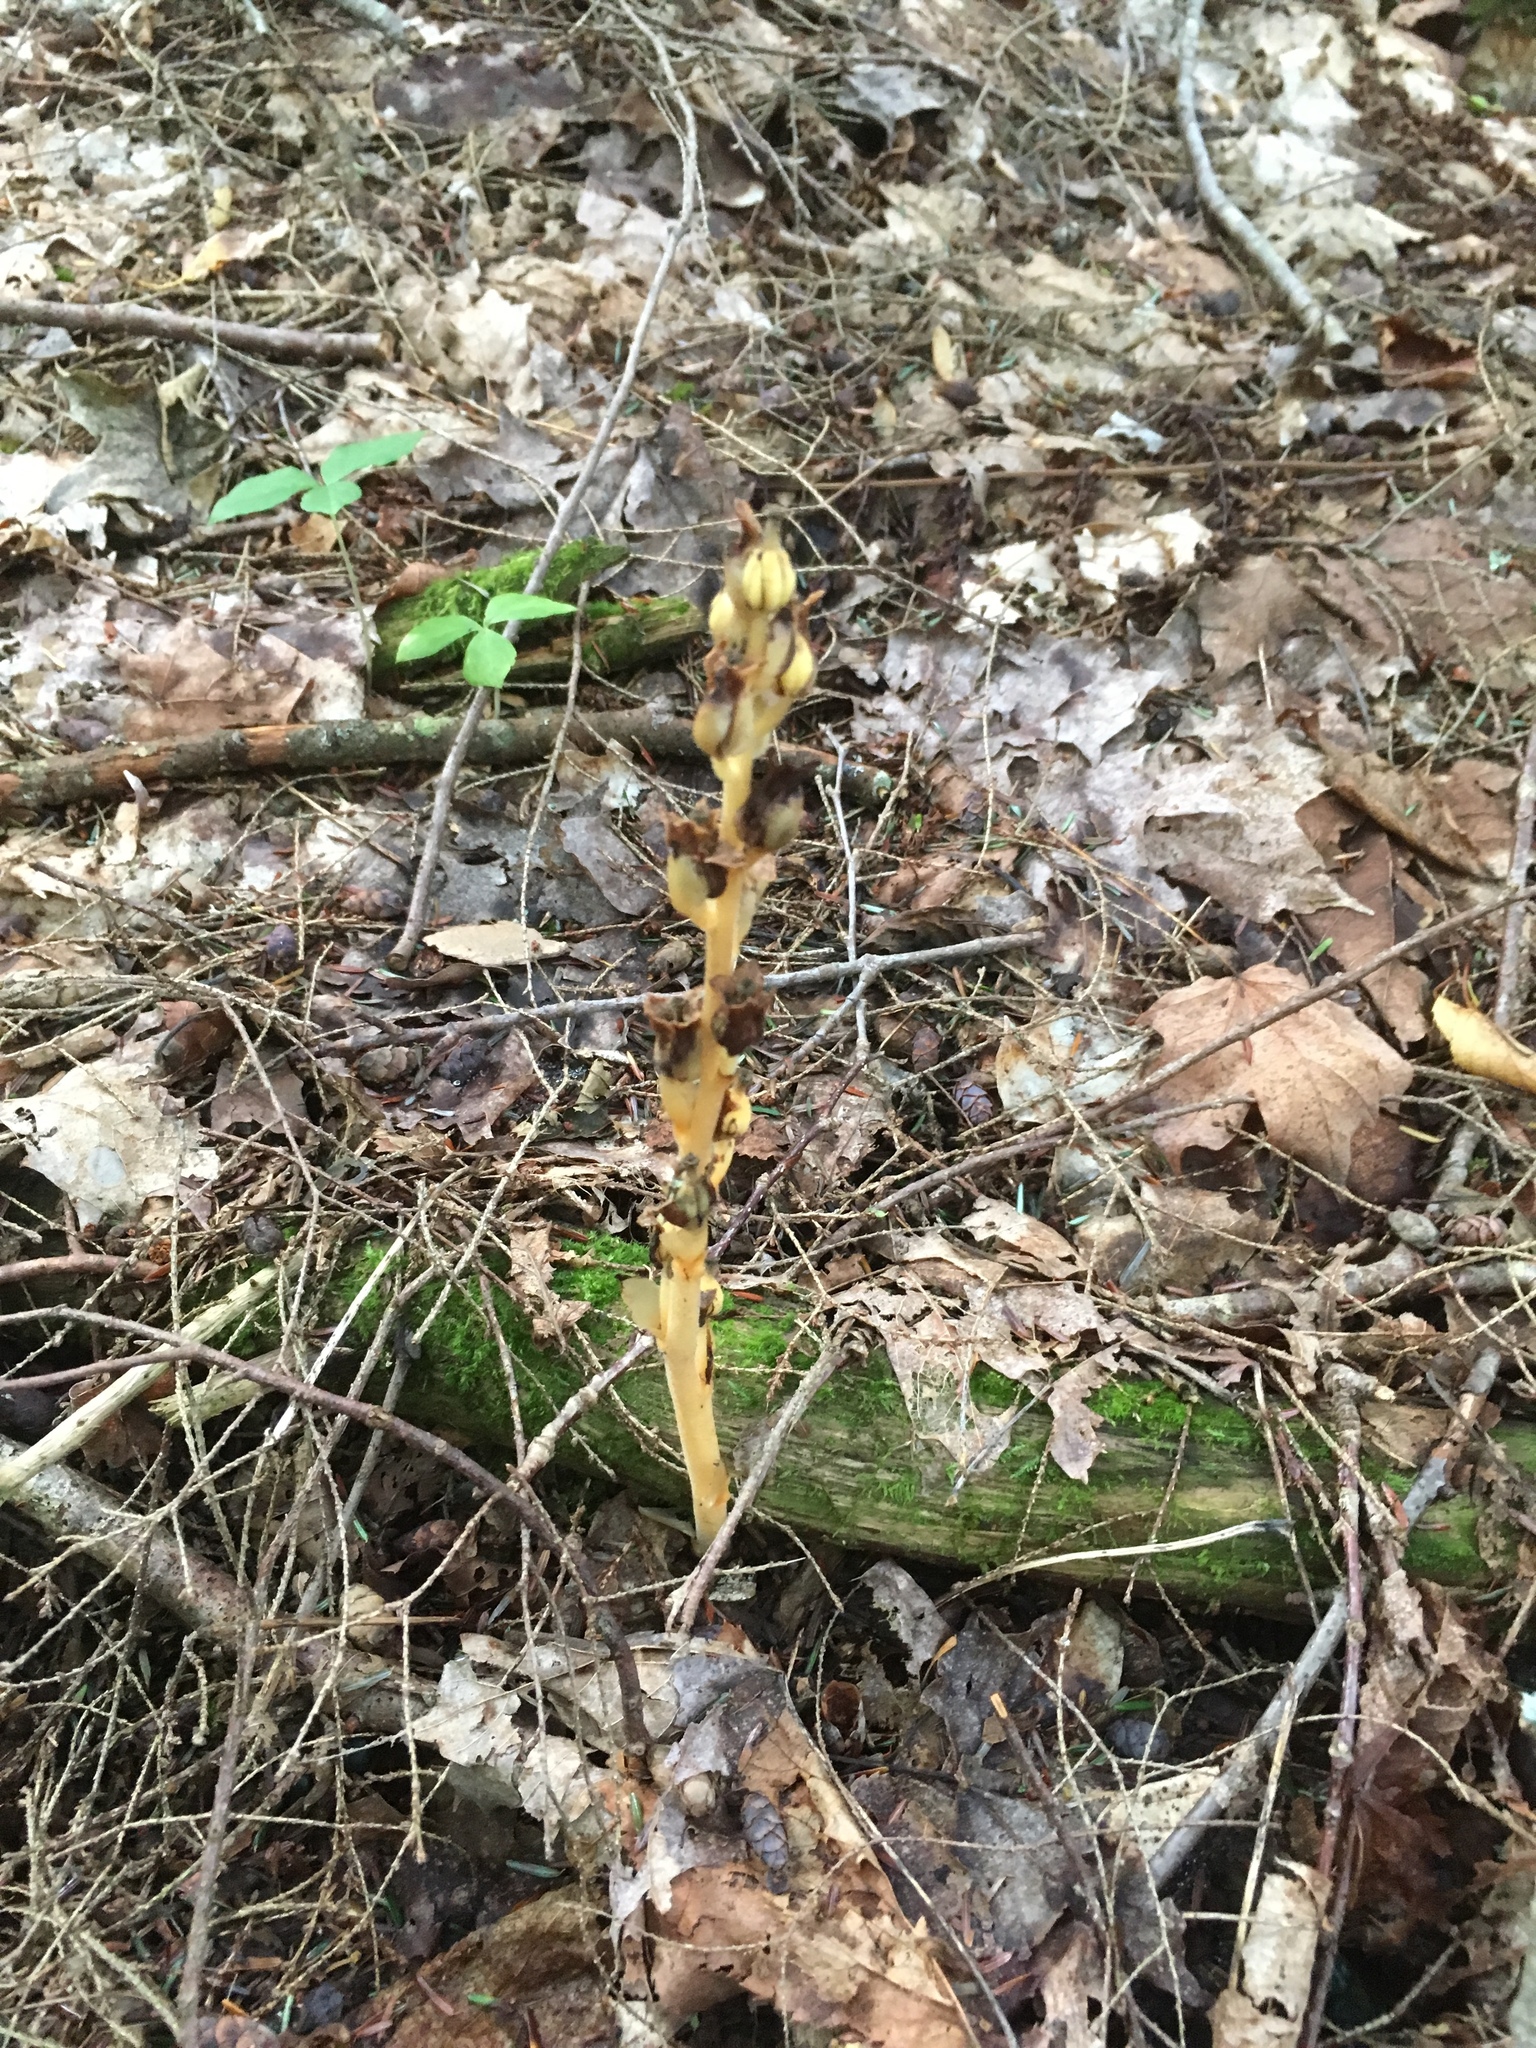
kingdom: Plantae
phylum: Tracheophyta
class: Magnoliopsida
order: Ericales
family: Ericaceae
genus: Hypopitys
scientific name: Hypopitys monotropa
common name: Yellow bird's-nest
